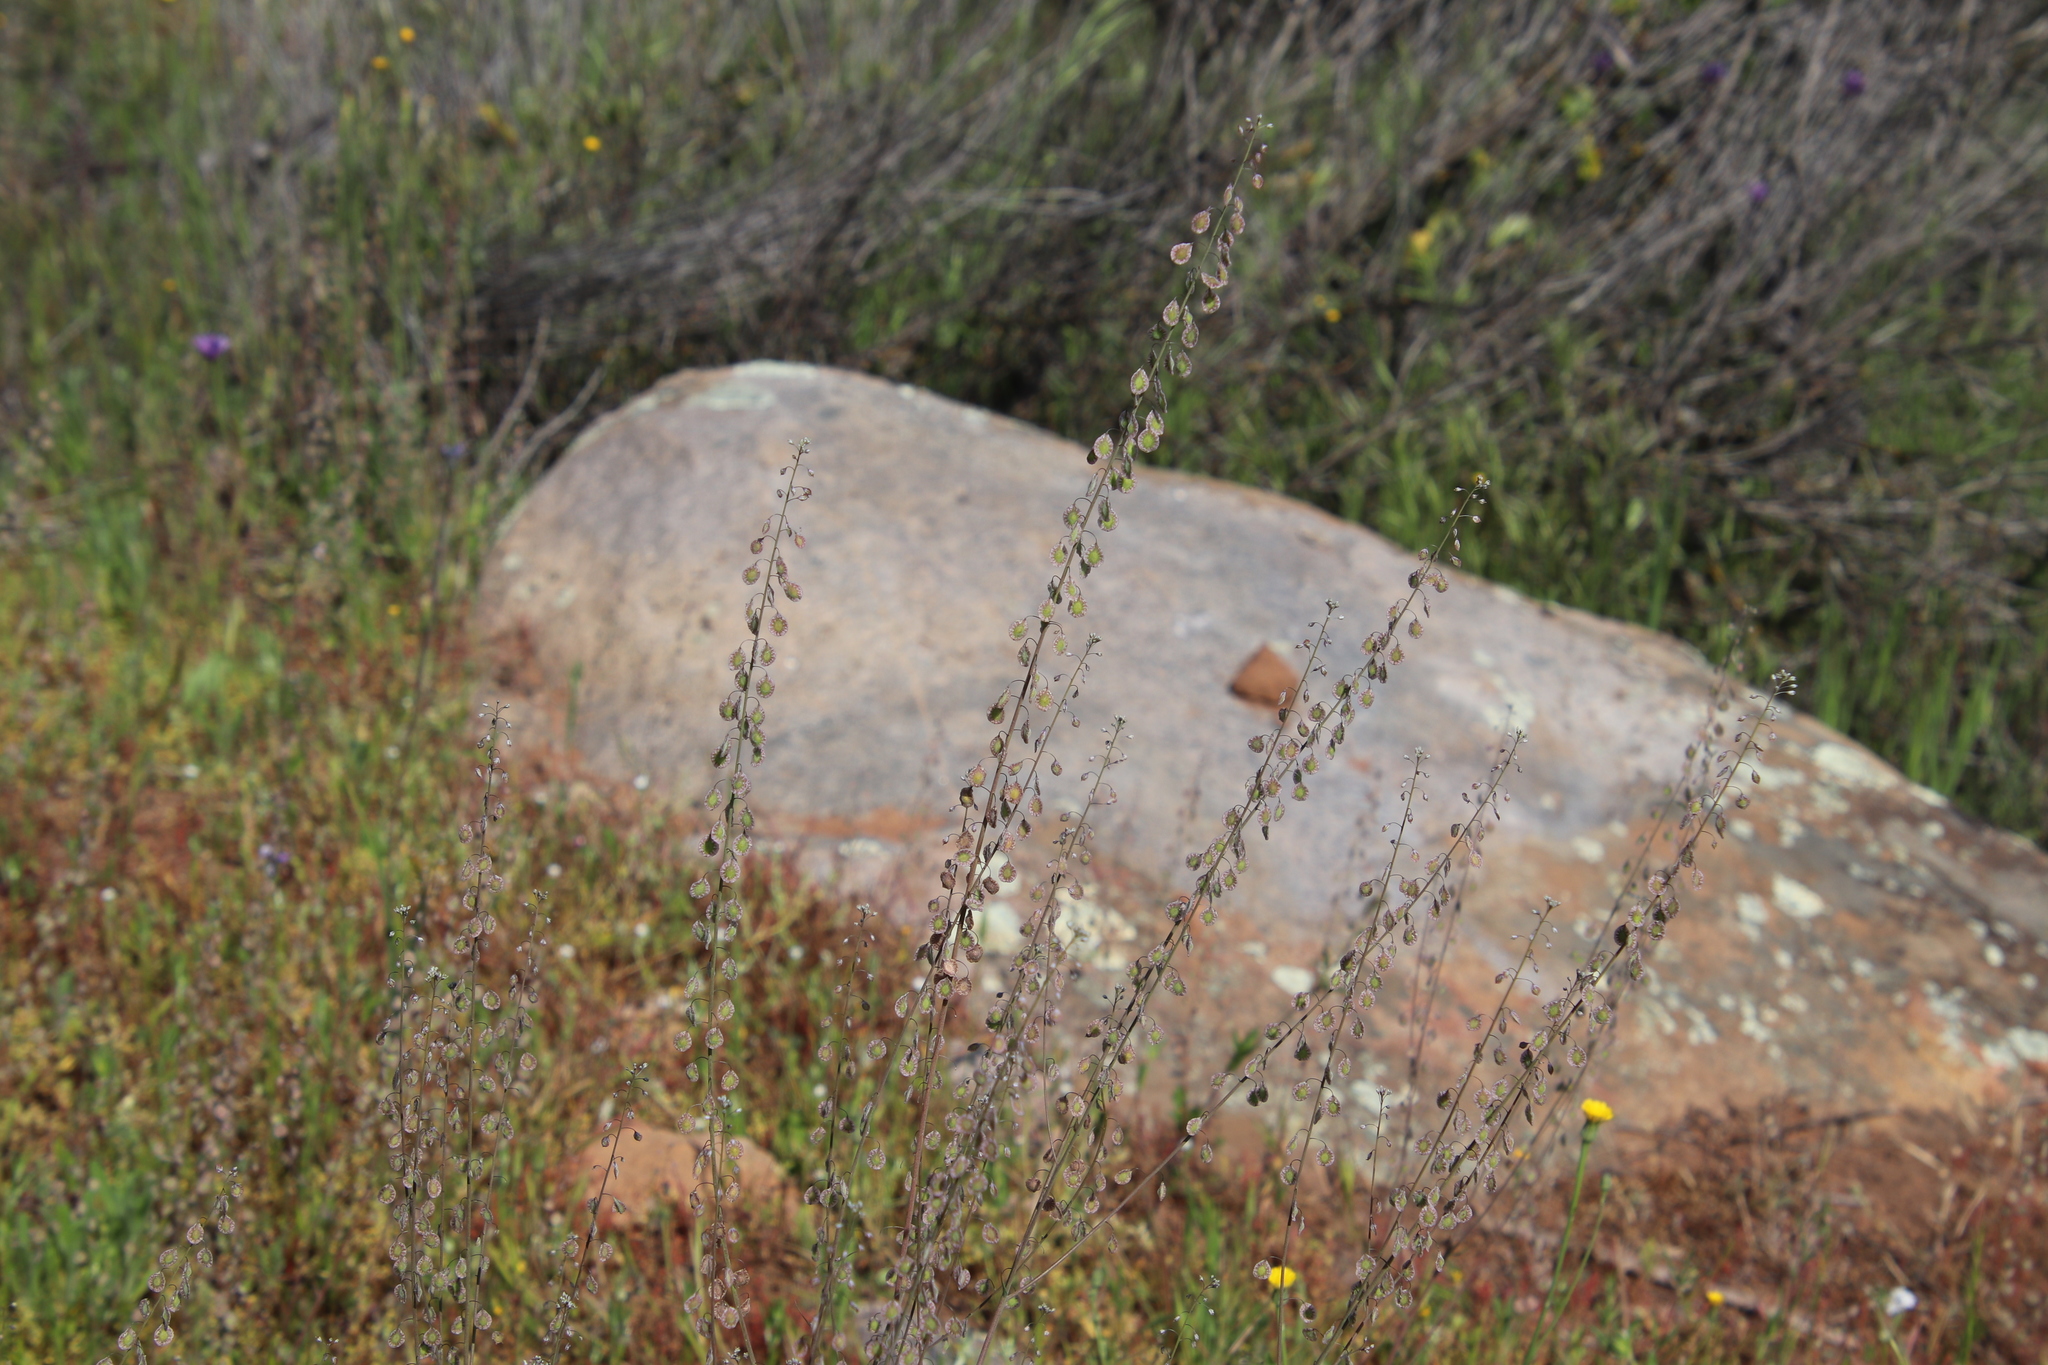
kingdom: Plantae
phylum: Tracheophyta
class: Magnoliopsida
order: Brassicales
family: Brassicaceae
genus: Thysanocarpus
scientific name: Thysanocarpus curvipes
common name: Sand fringepod
